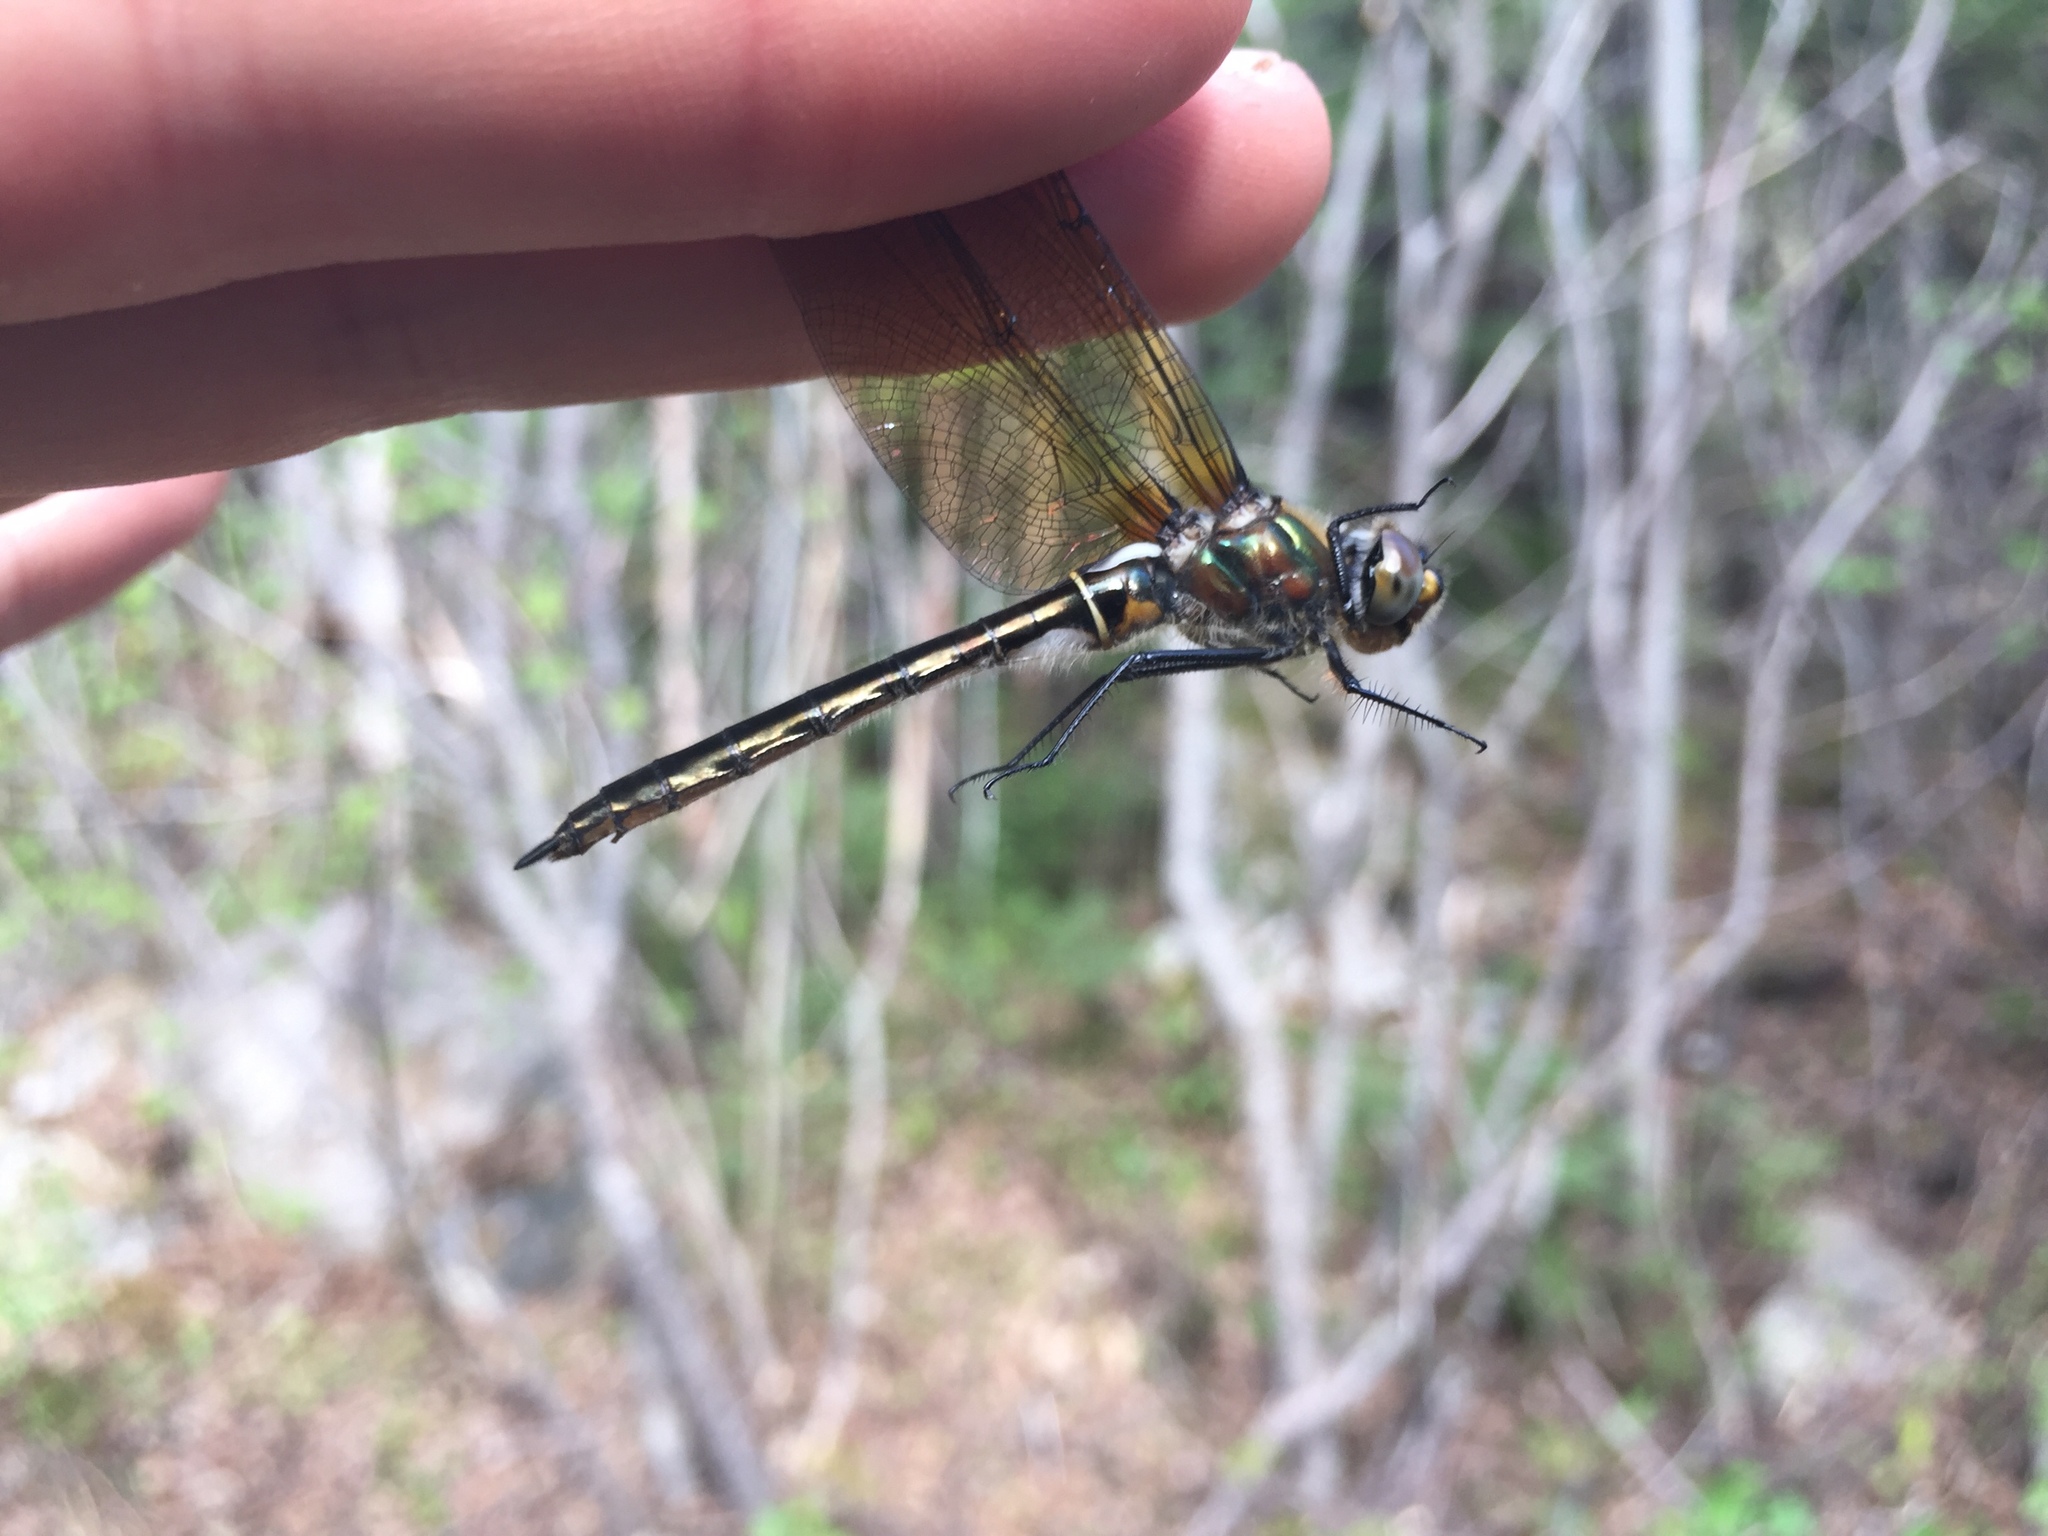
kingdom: Animalia
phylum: Arthropoda
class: Insecta
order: Odonata
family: Corduliidae
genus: Cordulia
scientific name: Cordulia shurtleffii
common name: American emerald
